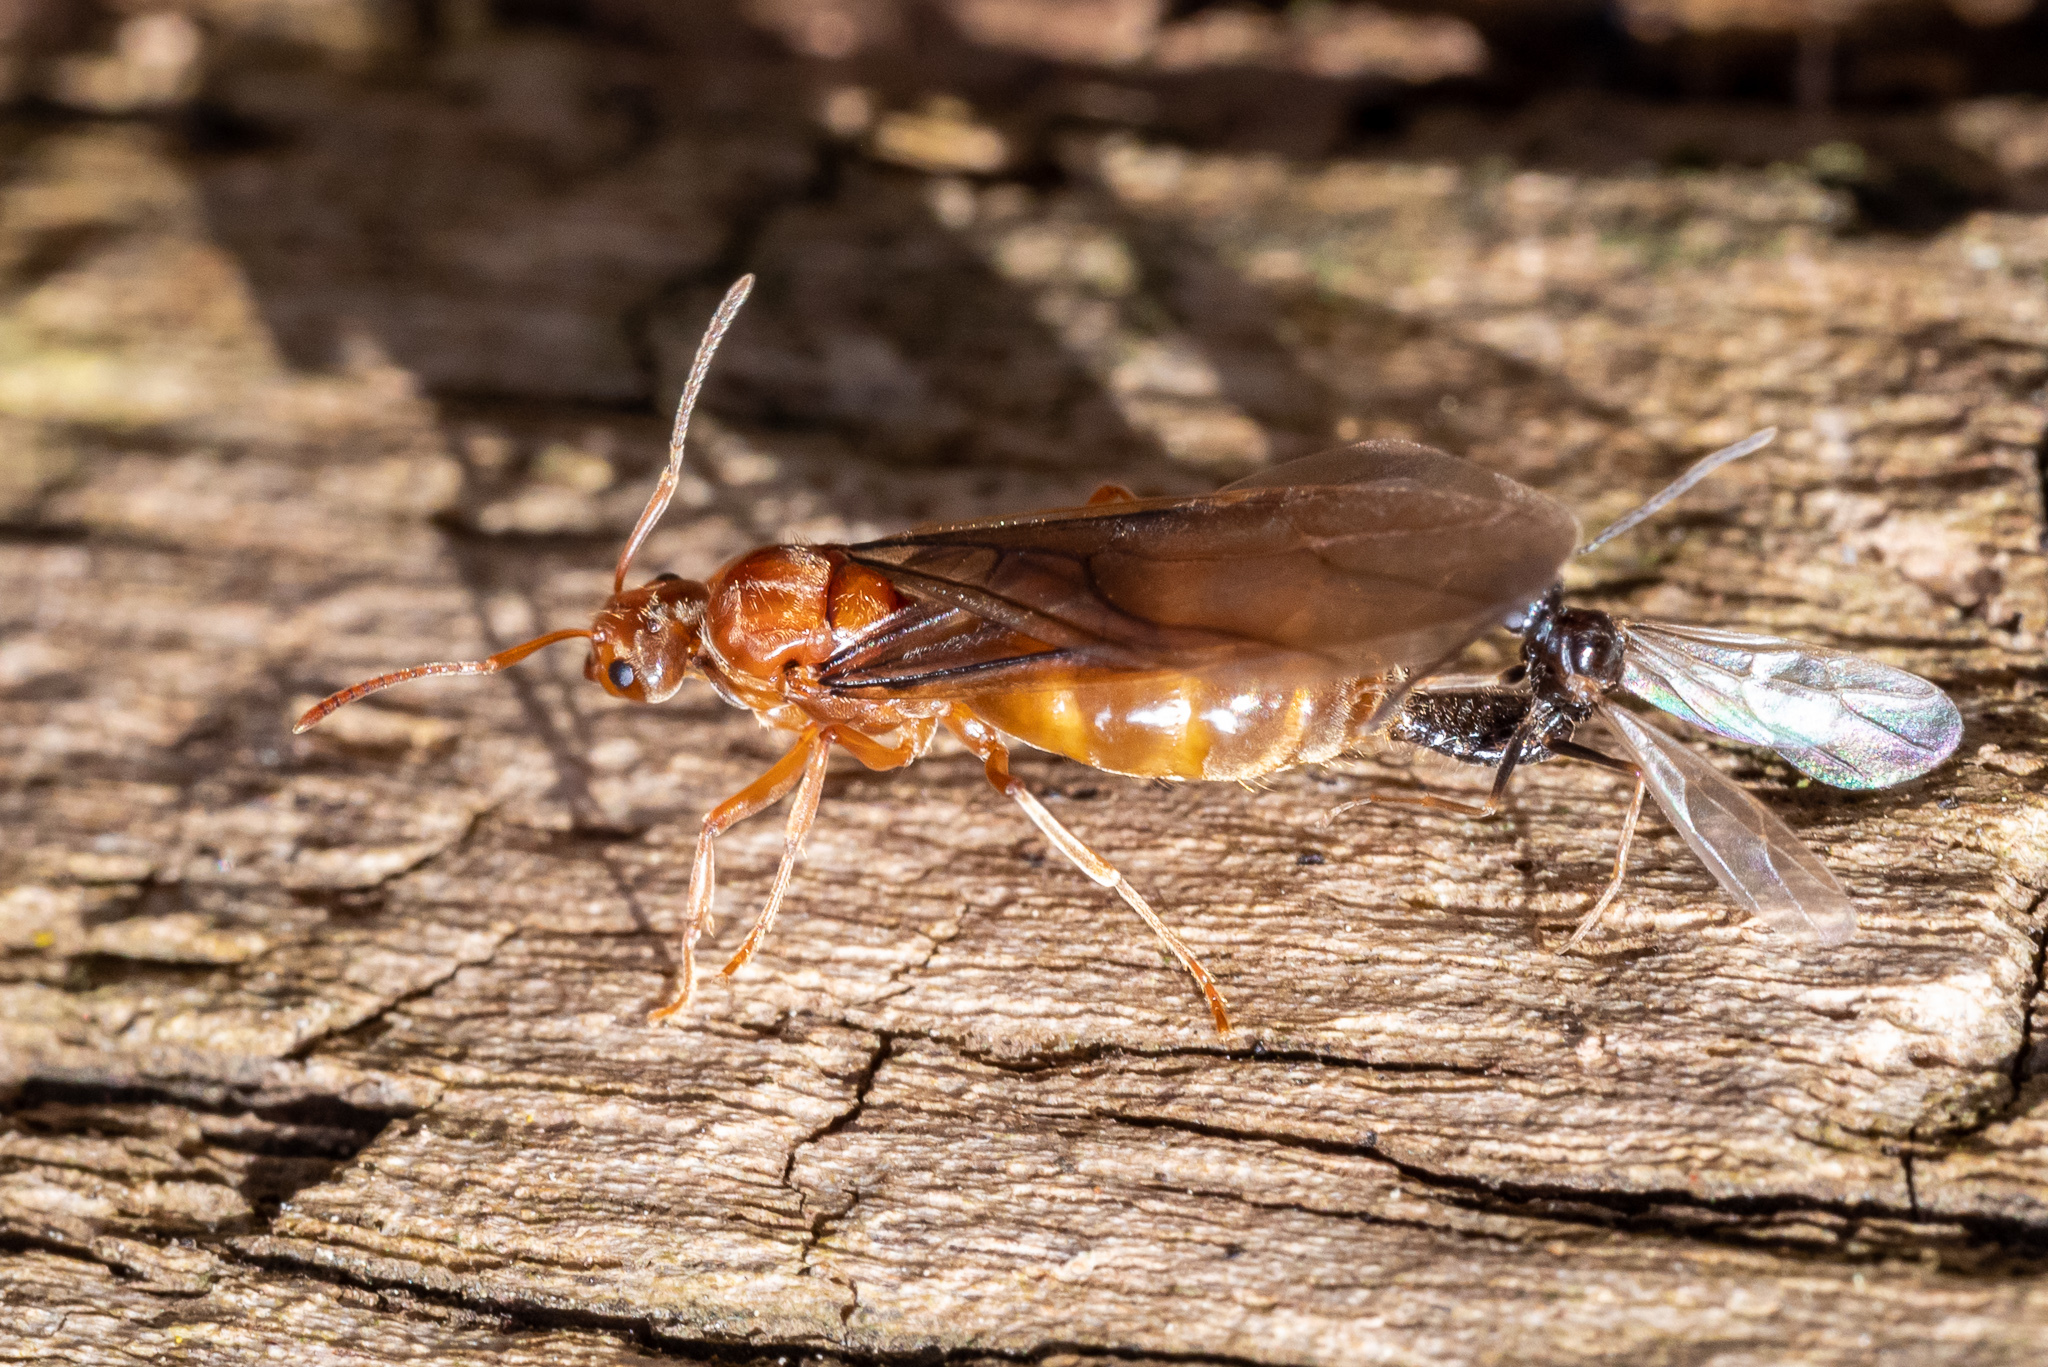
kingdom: Animalia
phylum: Arthropoda
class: Insecta
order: Hymenoptera
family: Formicidae
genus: Prenolepis
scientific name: Prenolepis imparis
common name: Small honey ant
